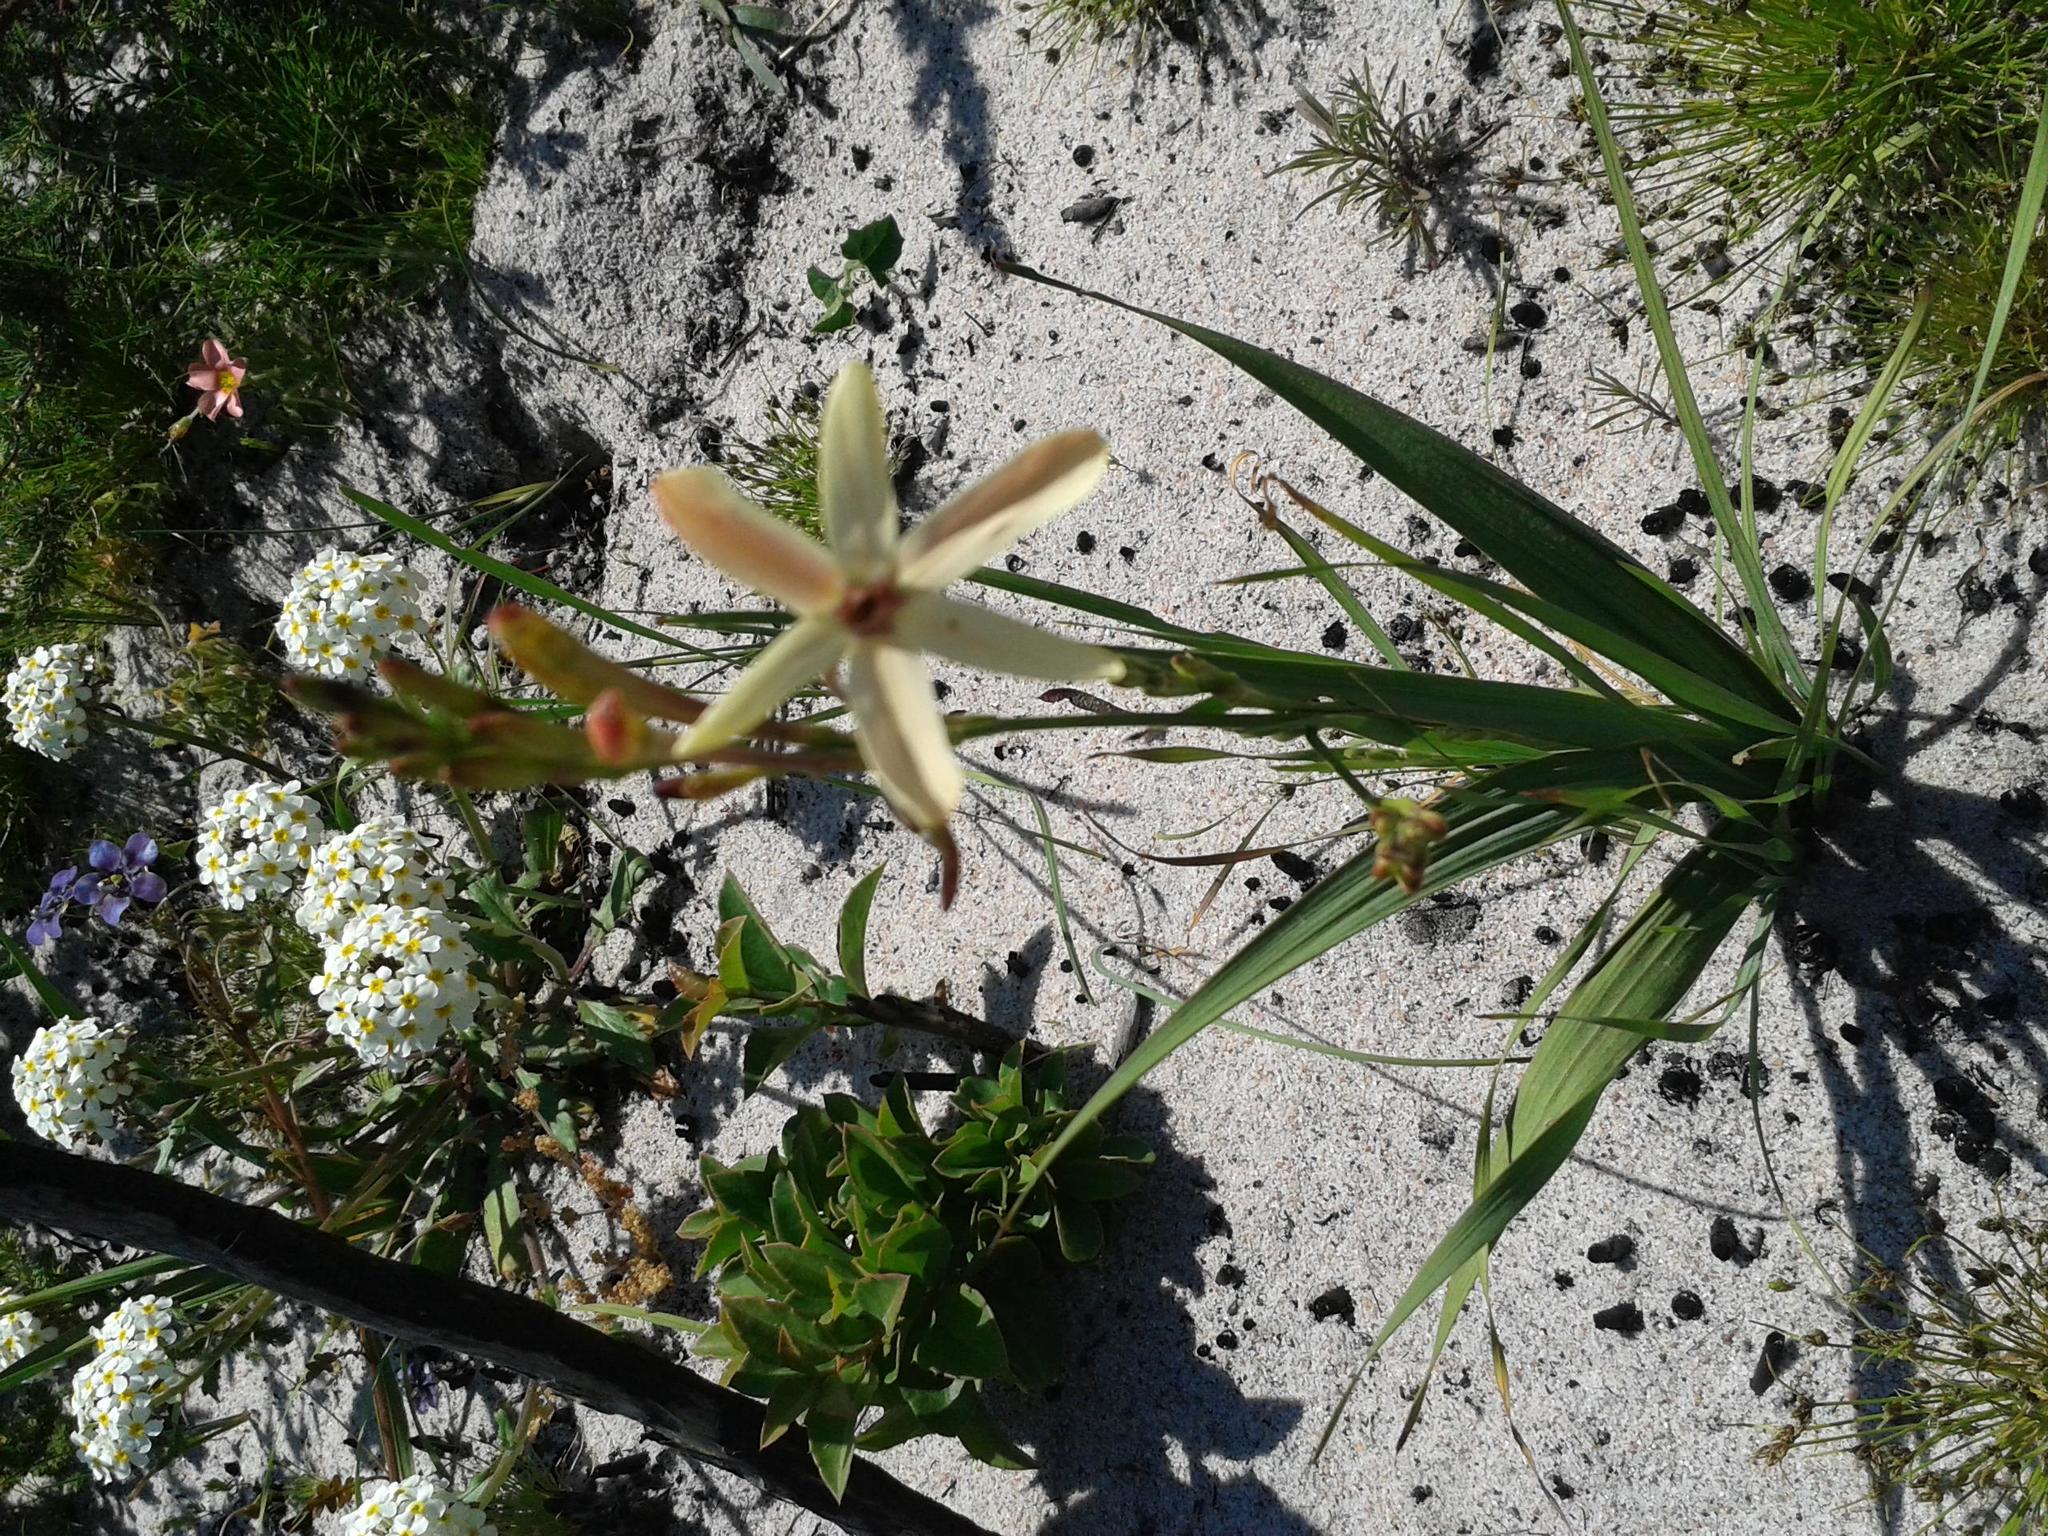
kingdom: Plantae
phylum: Tracheophyta
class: Liliopsida
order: Asparagales
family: Iridaceae
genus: Ixia
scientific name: Ixia paniculata
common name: Tubular corn-lily
